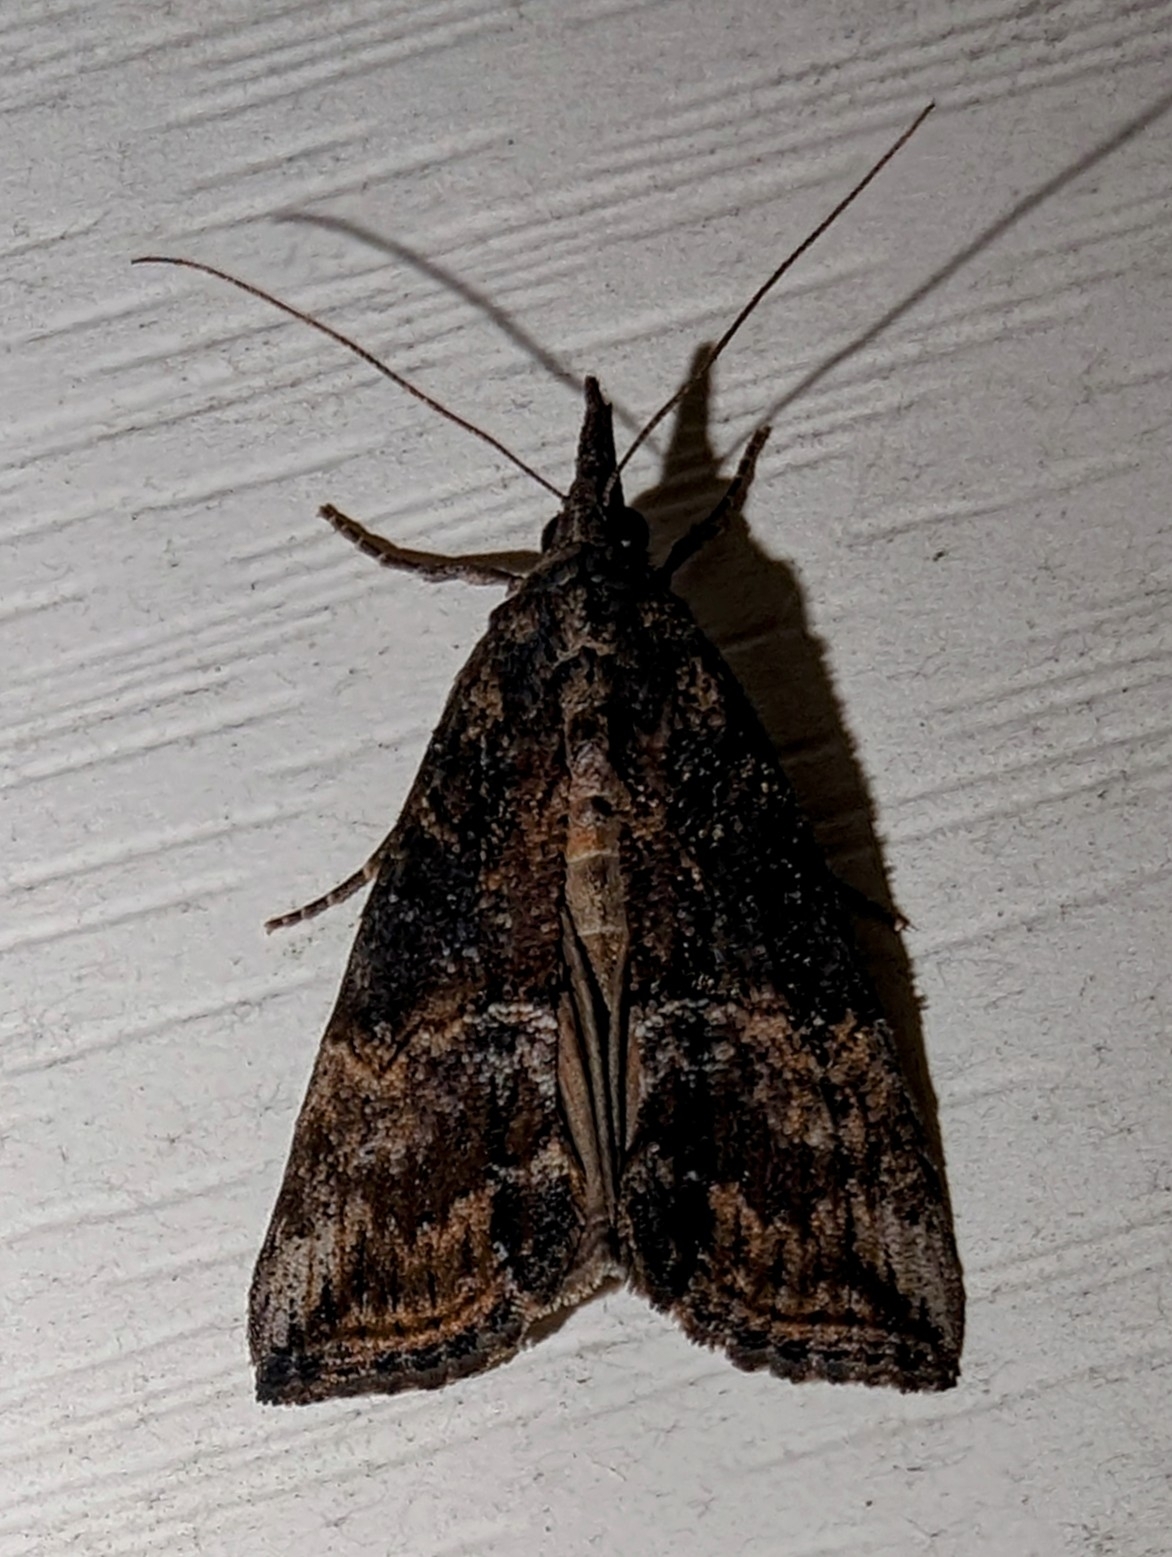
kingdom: Animalia
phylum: Arthropoda
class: Insecta
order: Lepidoptera
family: Erebidae
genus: Hypena
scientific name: Hypena scabra
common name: Green cloverworm
